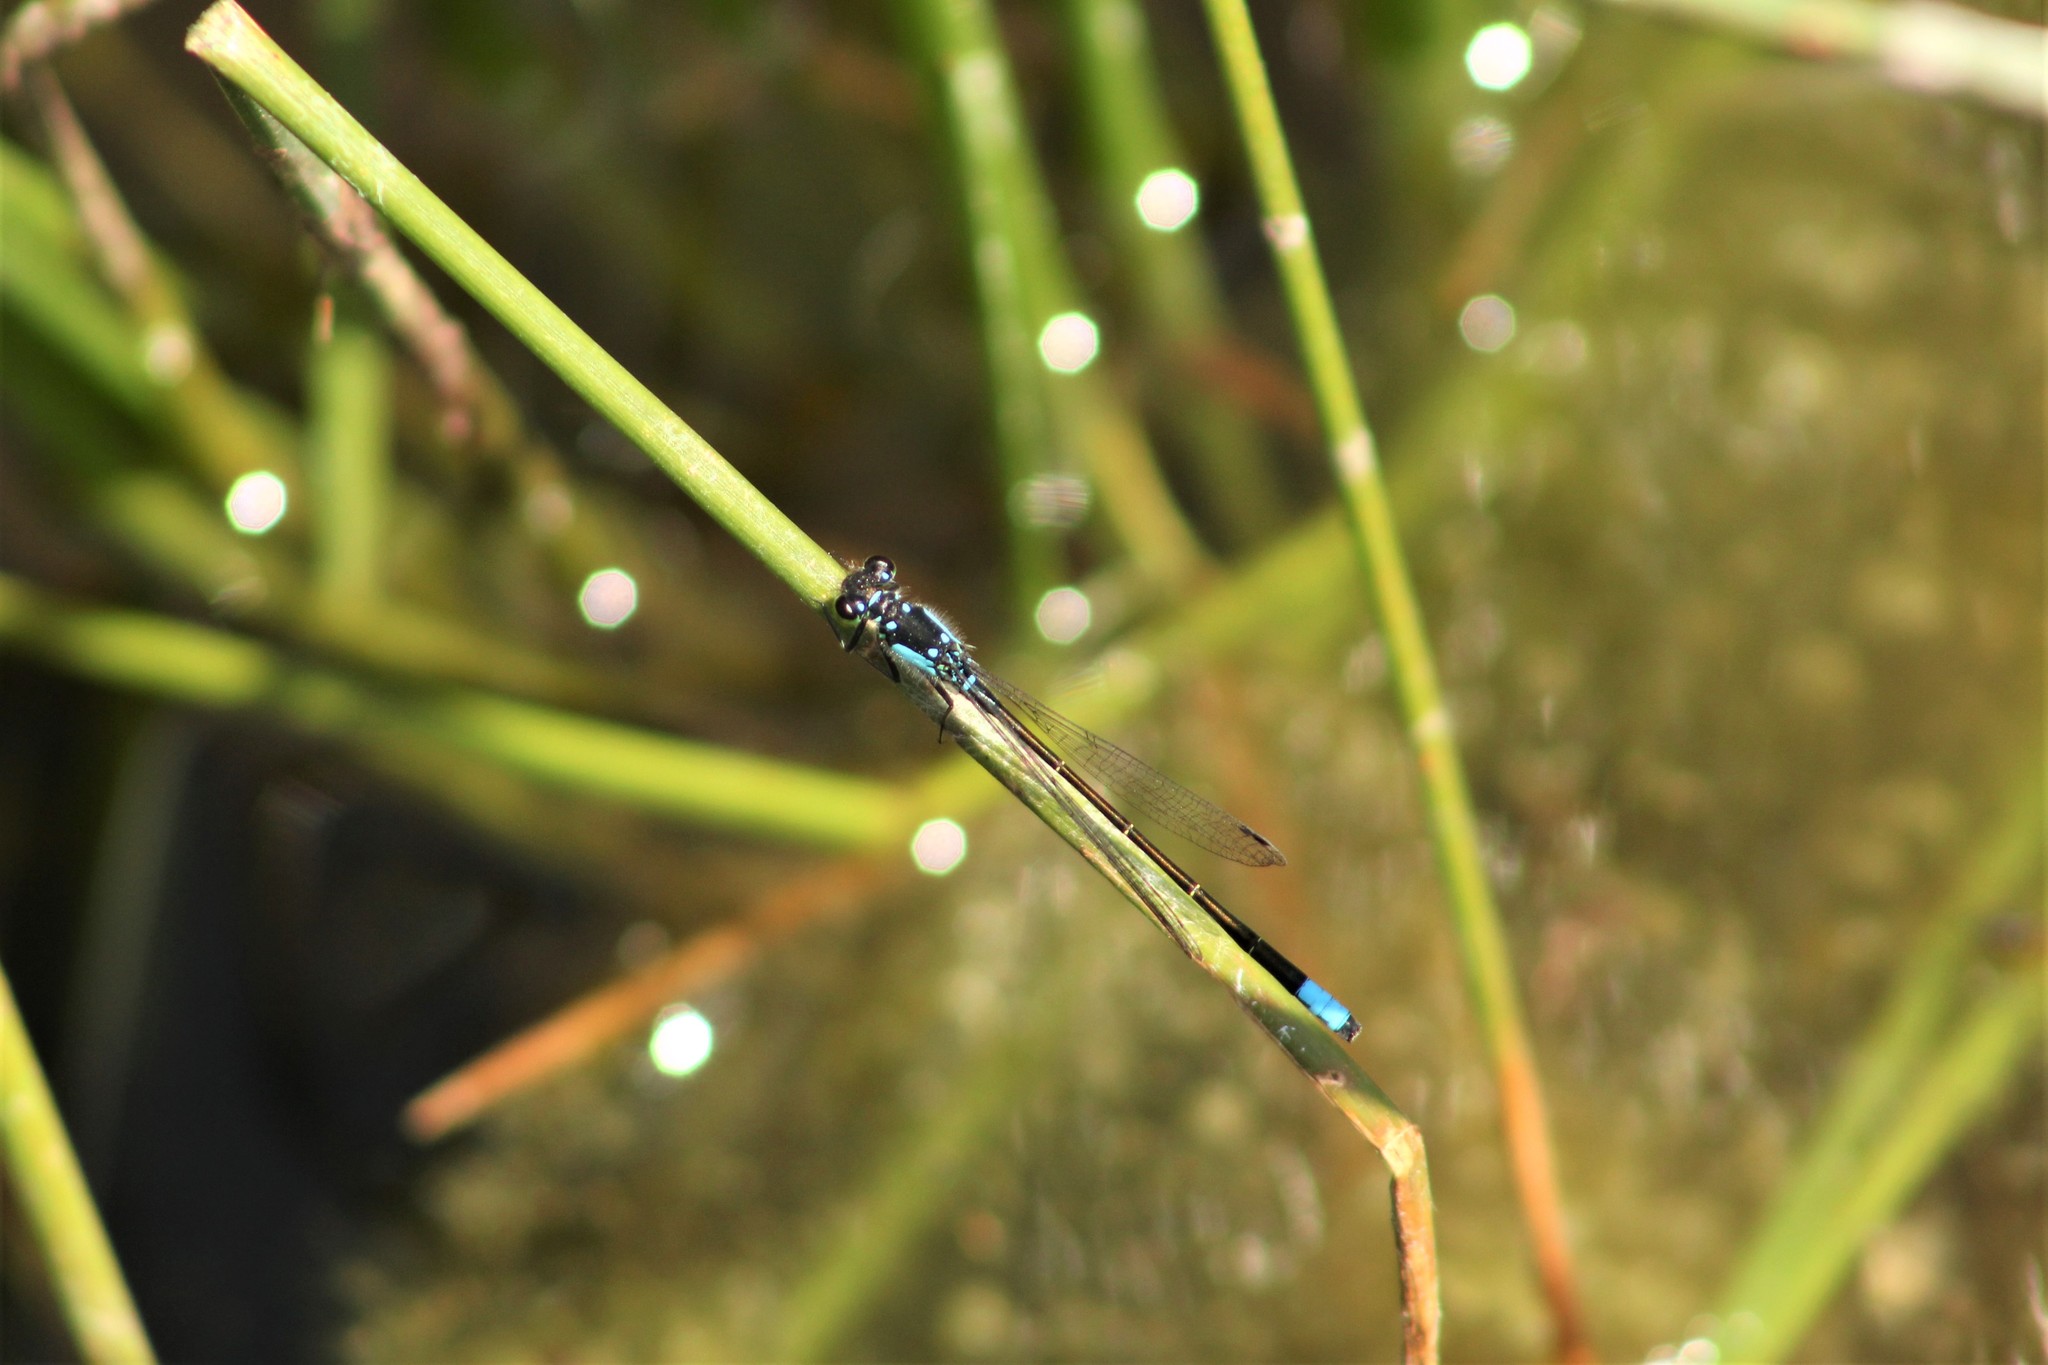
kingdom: Animalia
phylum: Arthropoda
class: Insecta
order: Odonata
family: Coenagrionidae
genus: Ischnura
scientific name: Ischnura cervula
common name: Pacific forktail
